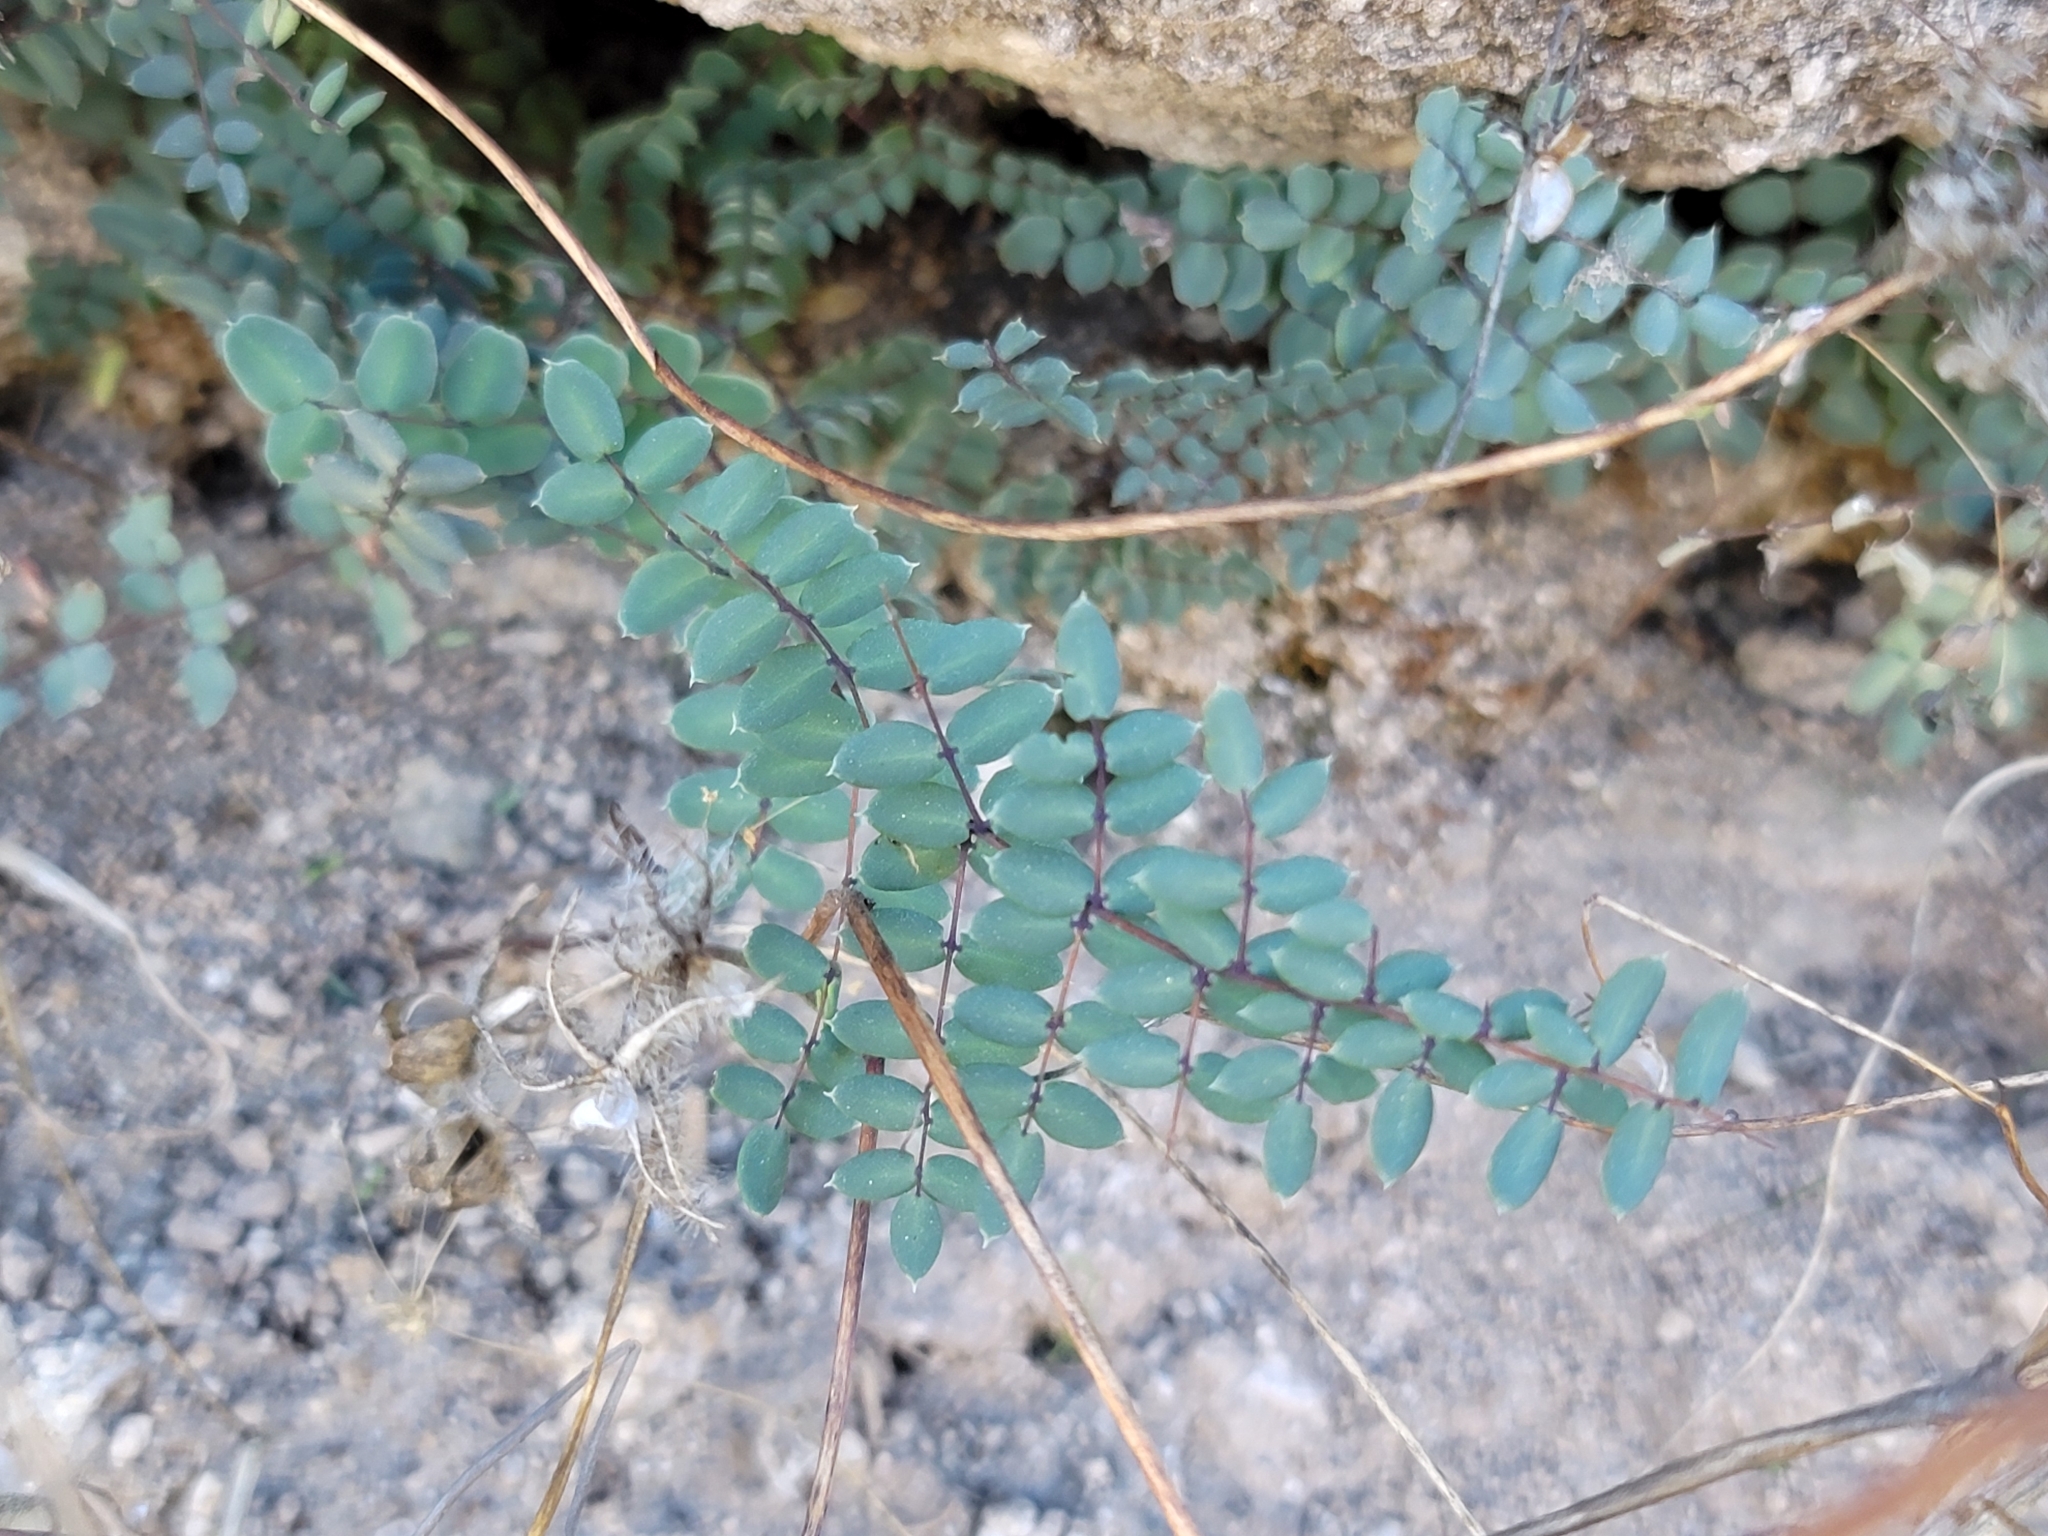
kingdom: Plantae
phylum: Tracheophyta
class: Polypodiopsida
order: Polypodiales
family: Pteridaceae
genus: Pellaea
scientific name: Pellaea truncata
